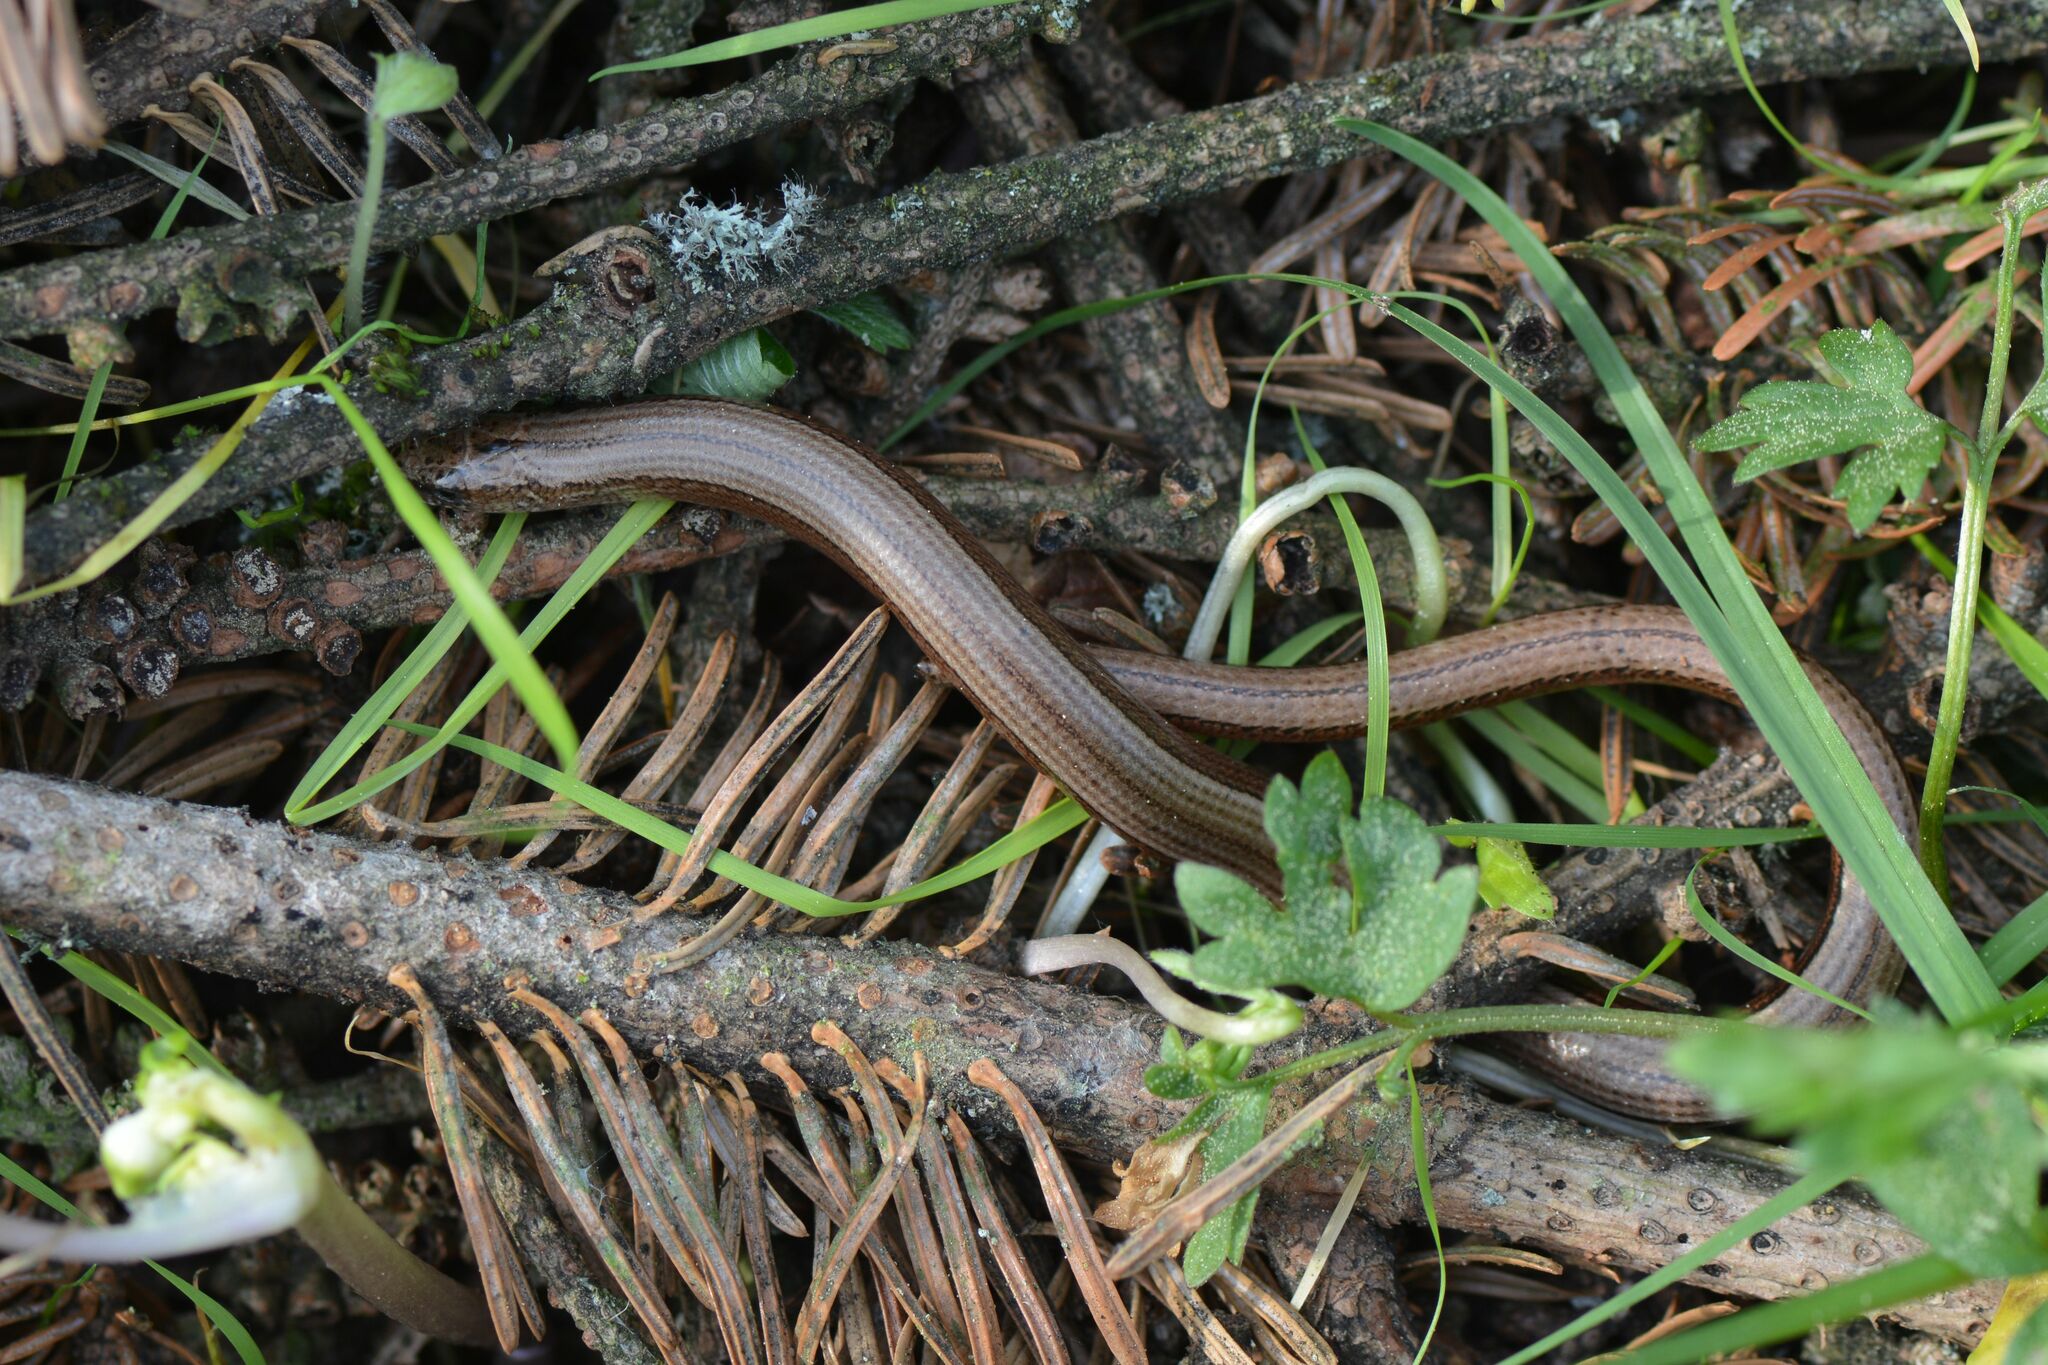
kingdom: Animalia
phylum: Chordata
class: Squamata
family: Anguidae
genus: Anguis
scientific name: Anguis fragilis
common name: Slow worm
